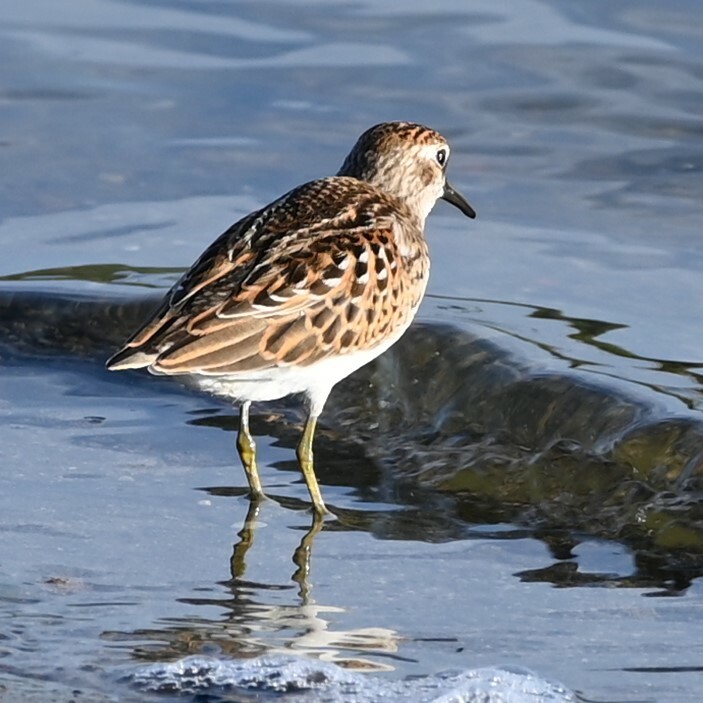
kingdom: Animalia
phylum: Chordata
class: Aves
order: Charadriiformes
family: Scolopacidae
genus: Calidris
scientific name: Calidris minutilla
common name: Least sandpiper
